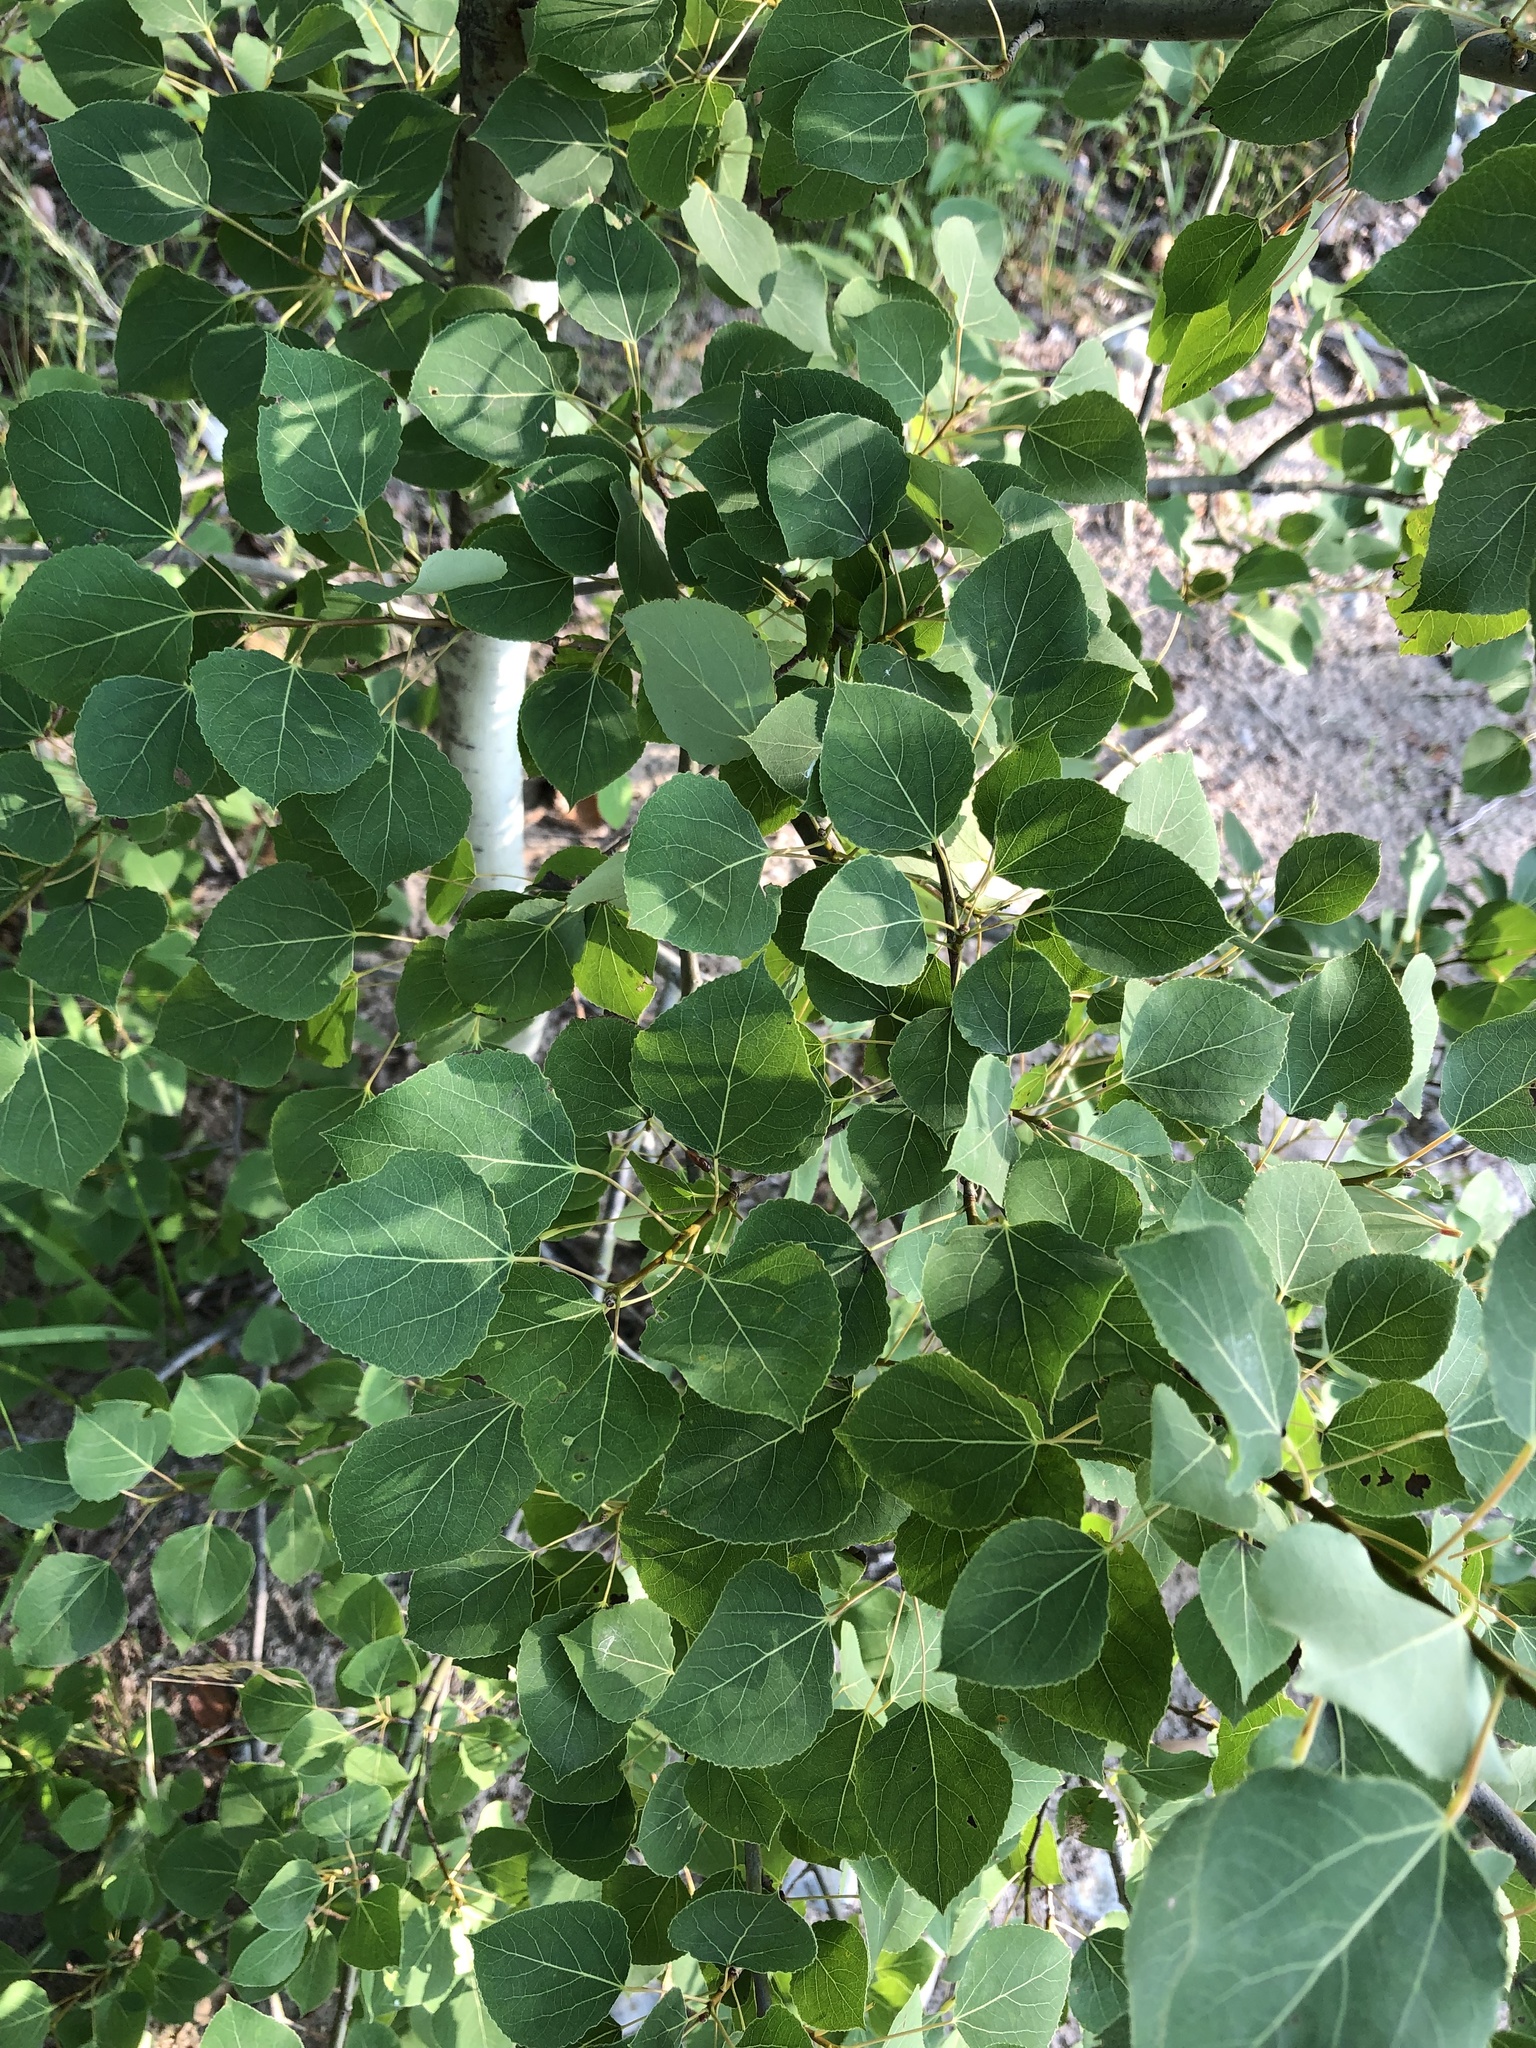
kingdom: Plantae
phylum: Tracheophyta
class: Magnoliopsida
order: Malpighiales
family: Salicaceae
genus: Populus
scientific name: Populus tremuloides
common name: Quaking aspen
